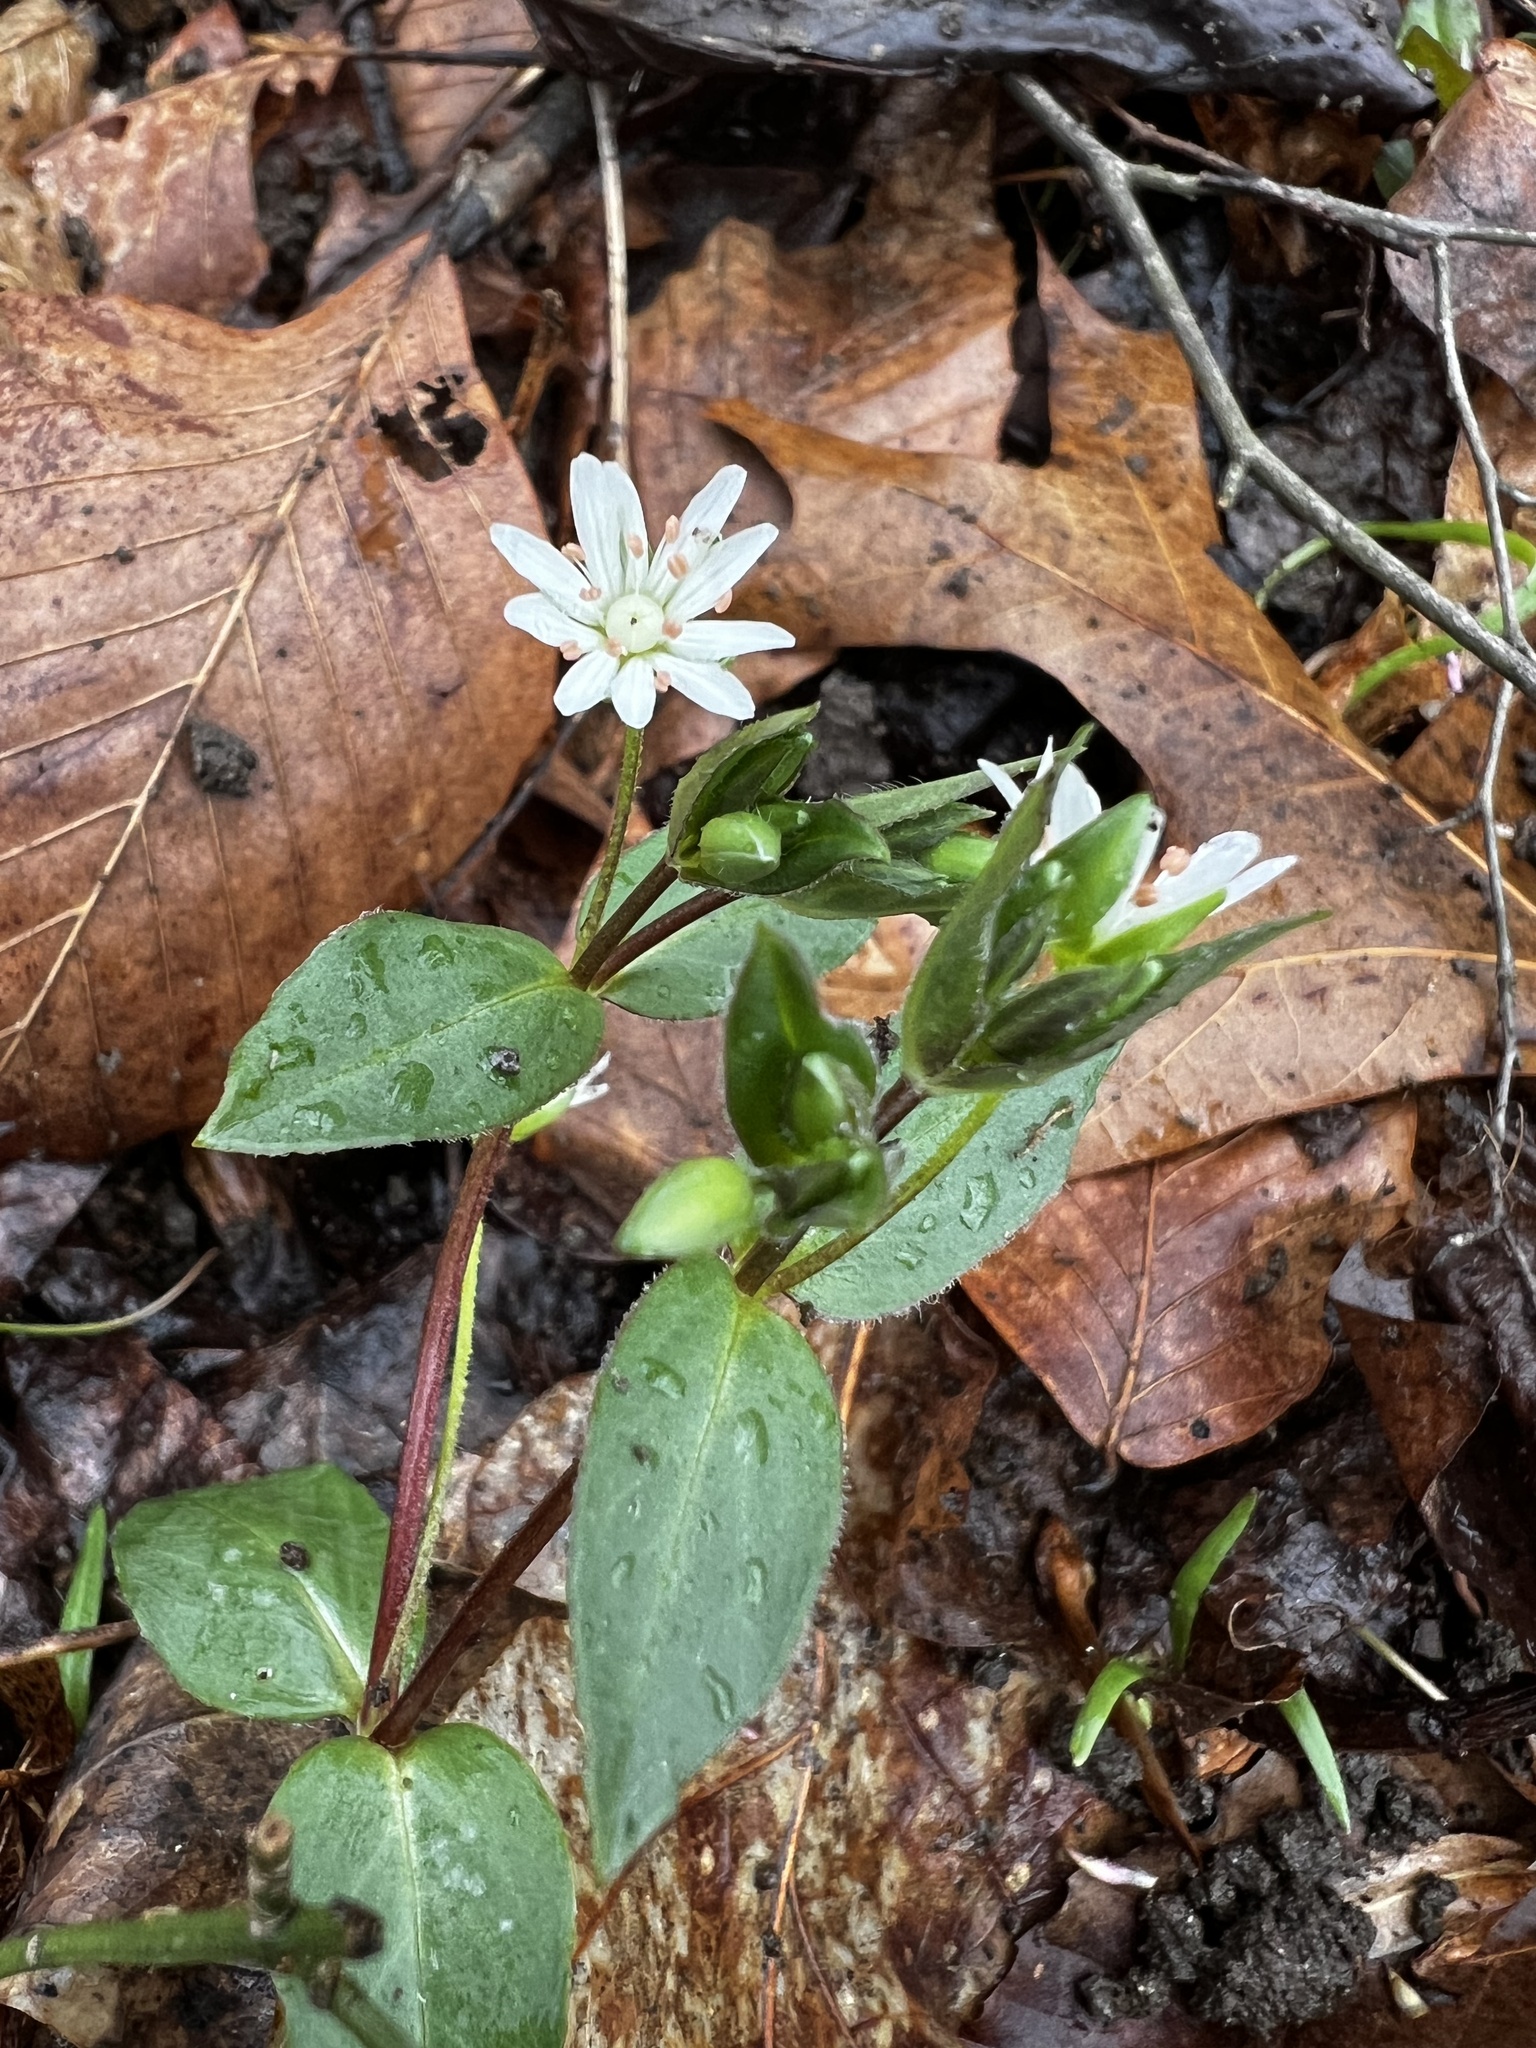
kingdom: Plantae
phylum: Tracheophyta
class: Magnoliopsida
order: Caryophyllales
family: Caryophyllaceae
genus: Stellaria
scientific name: Stellaria pubera
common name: Star chickweed
